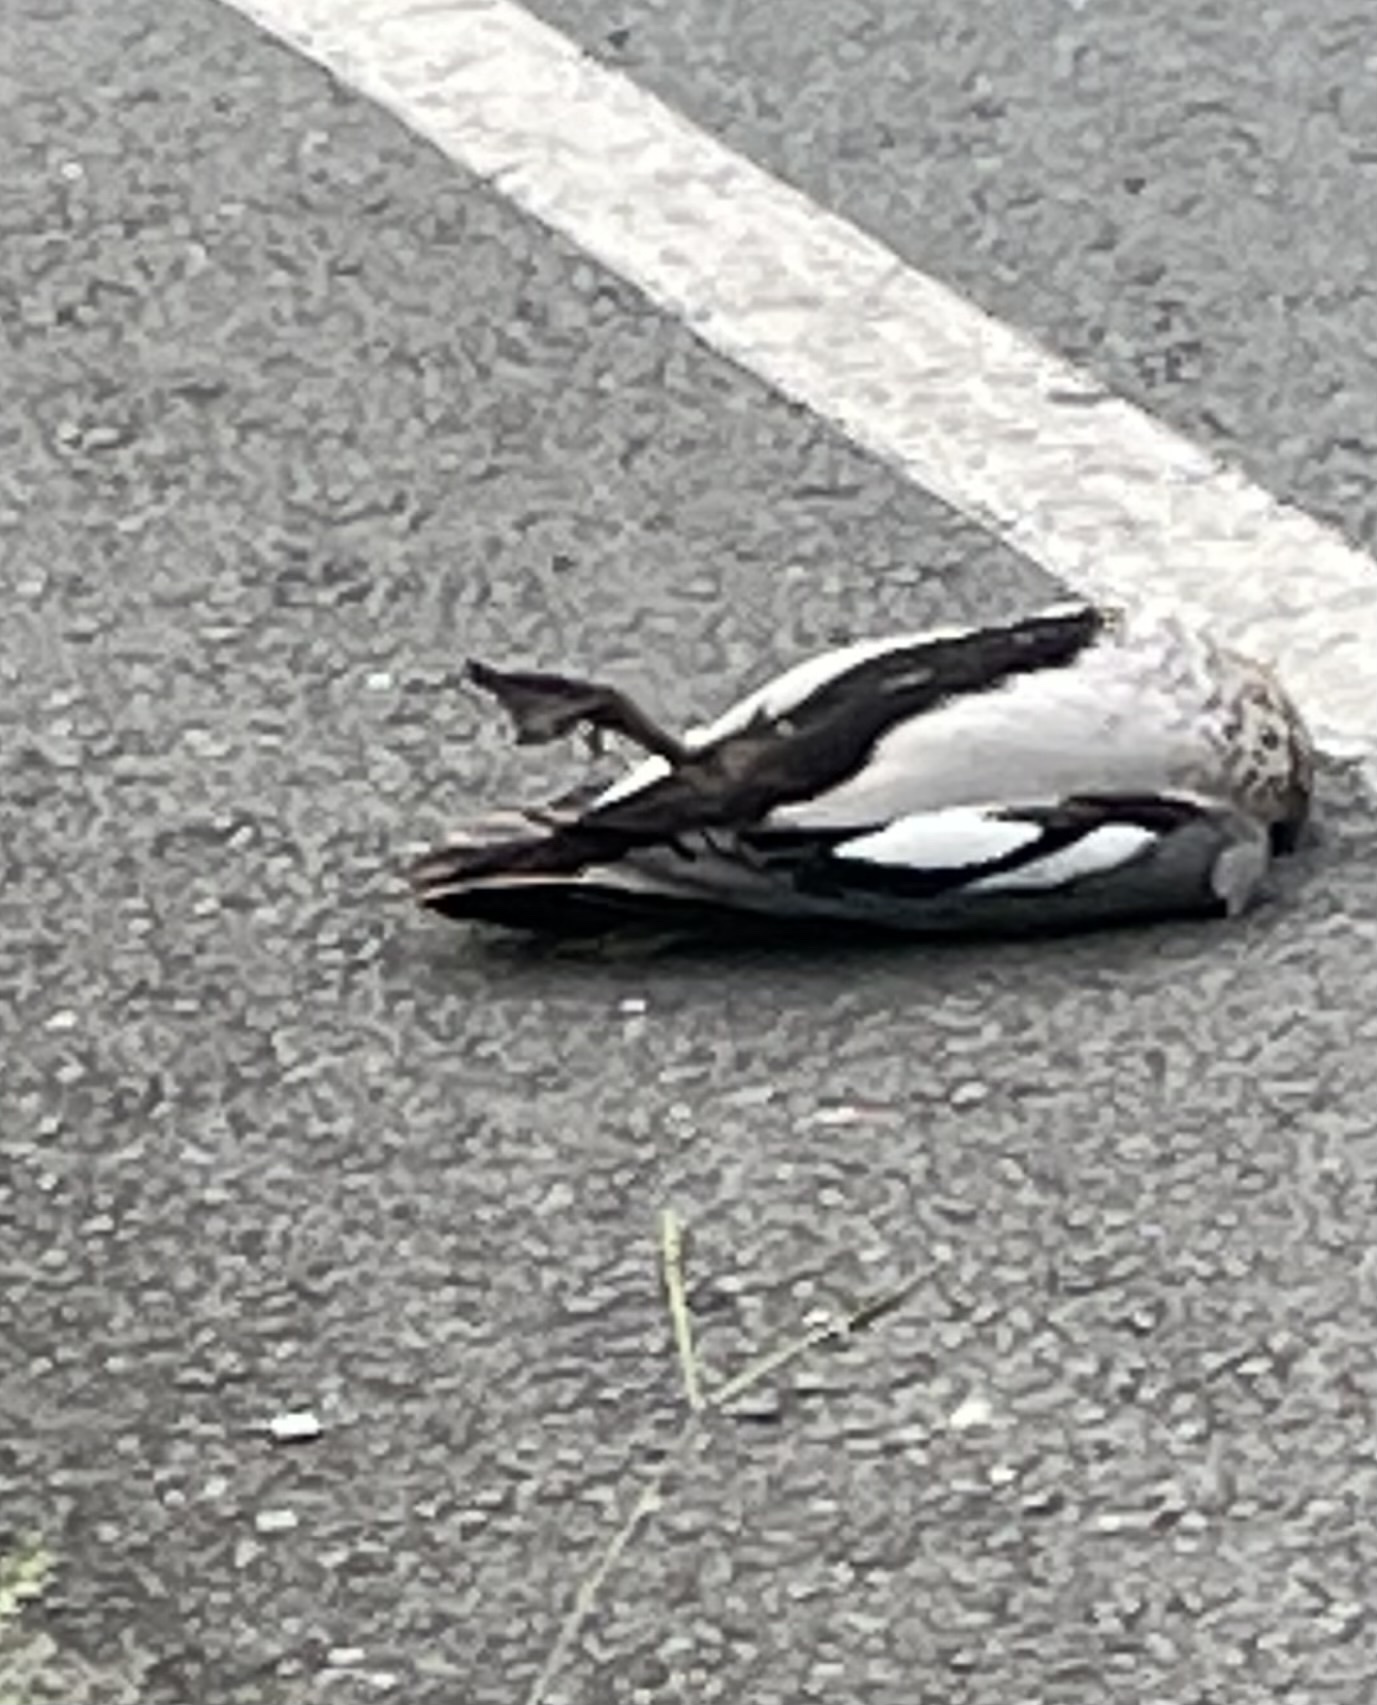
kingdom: Animalia
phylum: Chordata
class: Aves
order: Anseriformes
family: Anatidae
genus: Chenonetta
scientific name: Chenonetta jubata
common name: Maned duck
